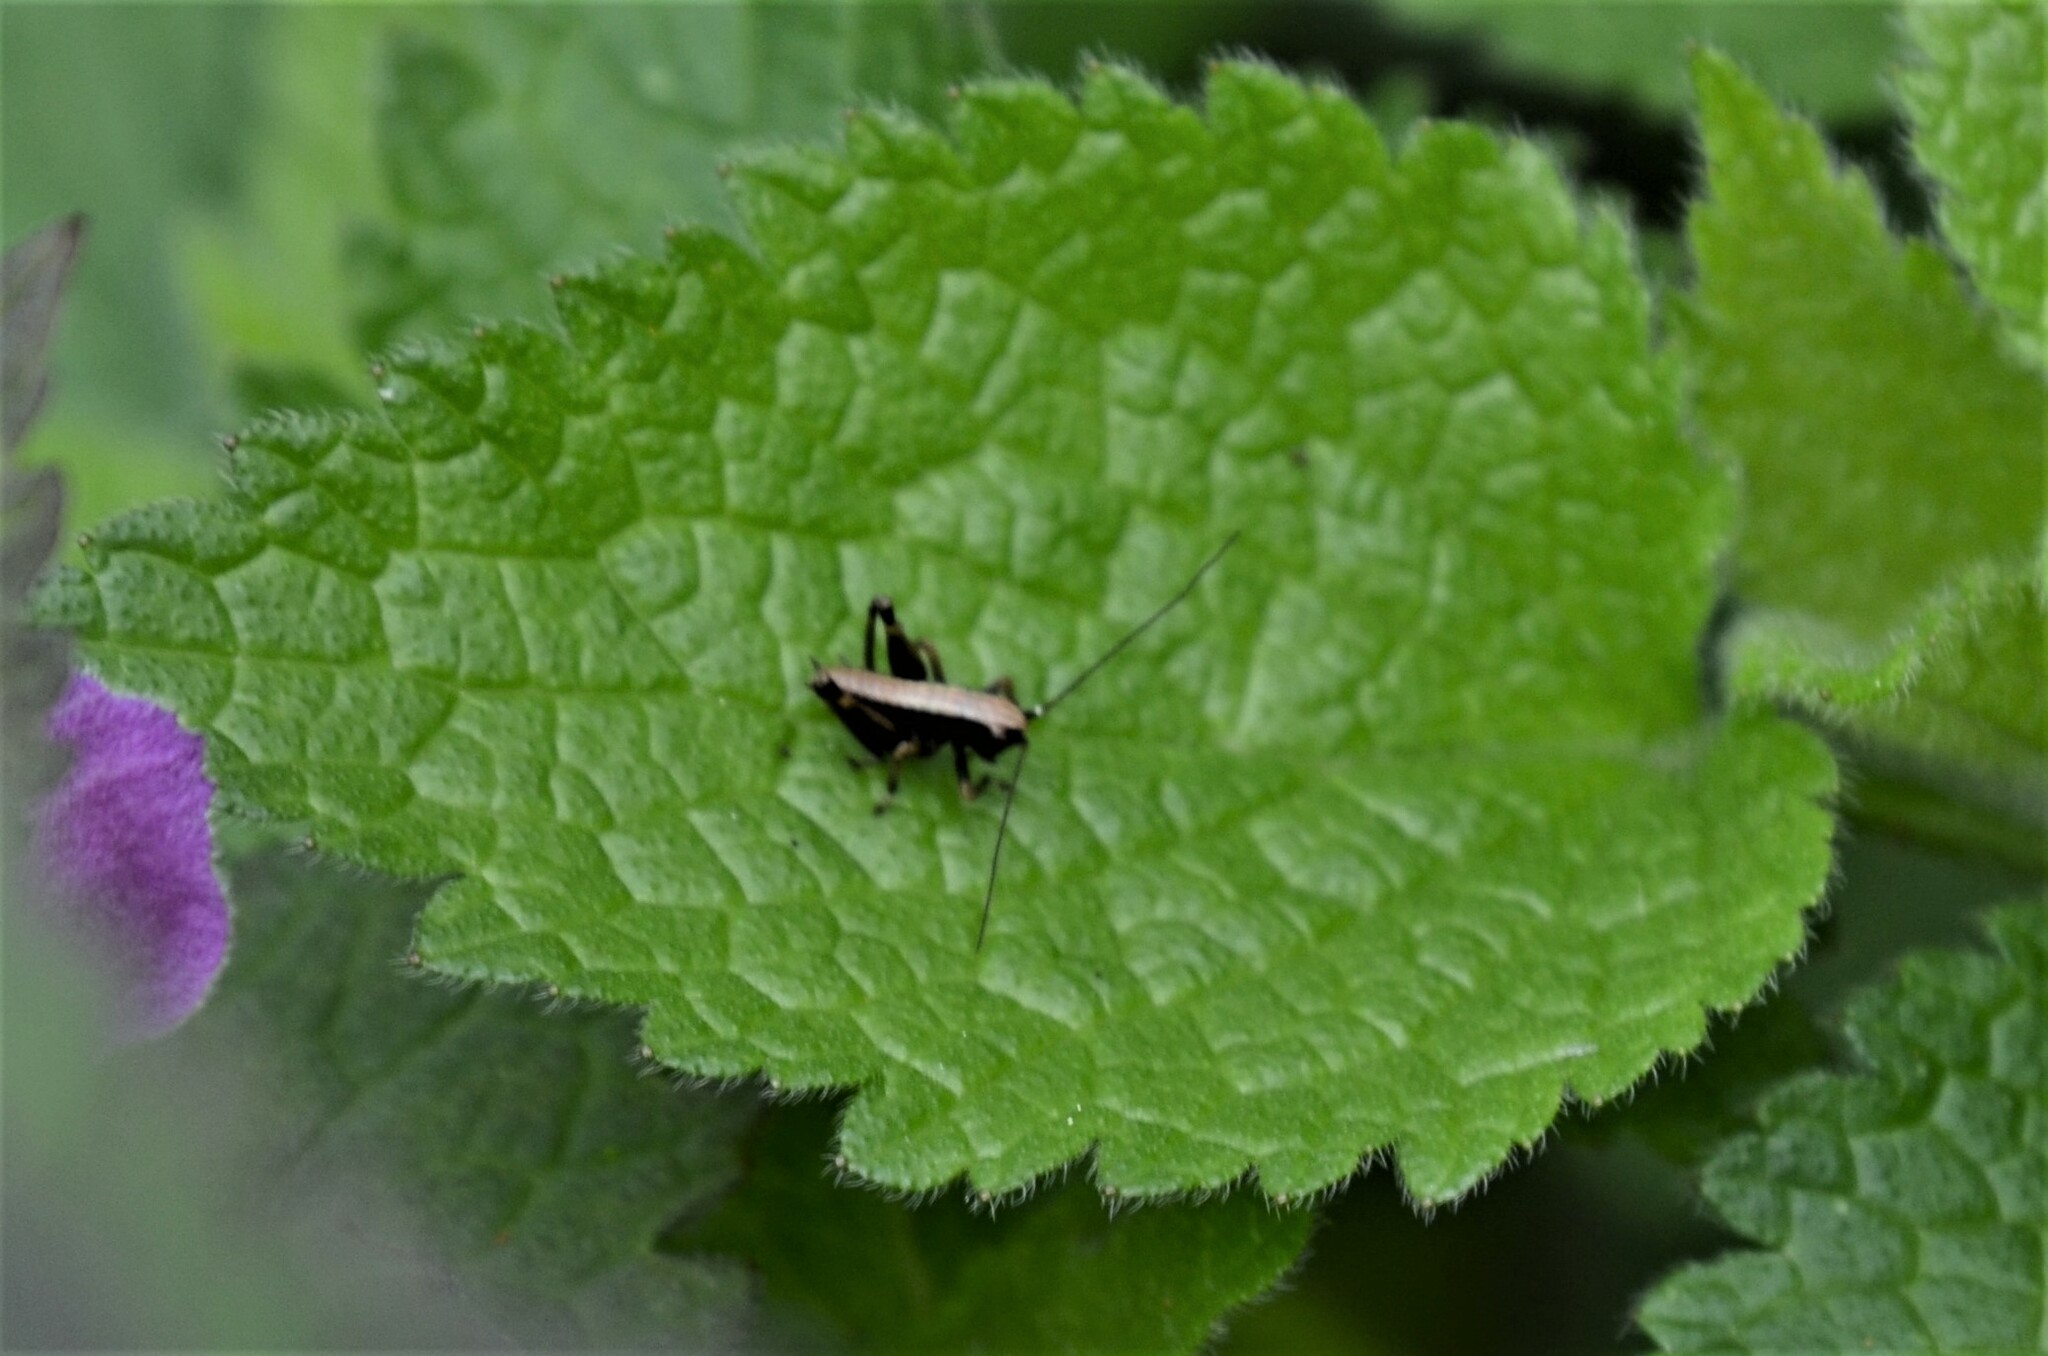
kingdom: Animalia
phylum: Arthropoda
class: Insecta
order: Orthoptera
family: Tettigoniidae
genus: Pholidoptera
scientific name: Pholidoptera griseoaptera
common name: Dark bush-cricket
